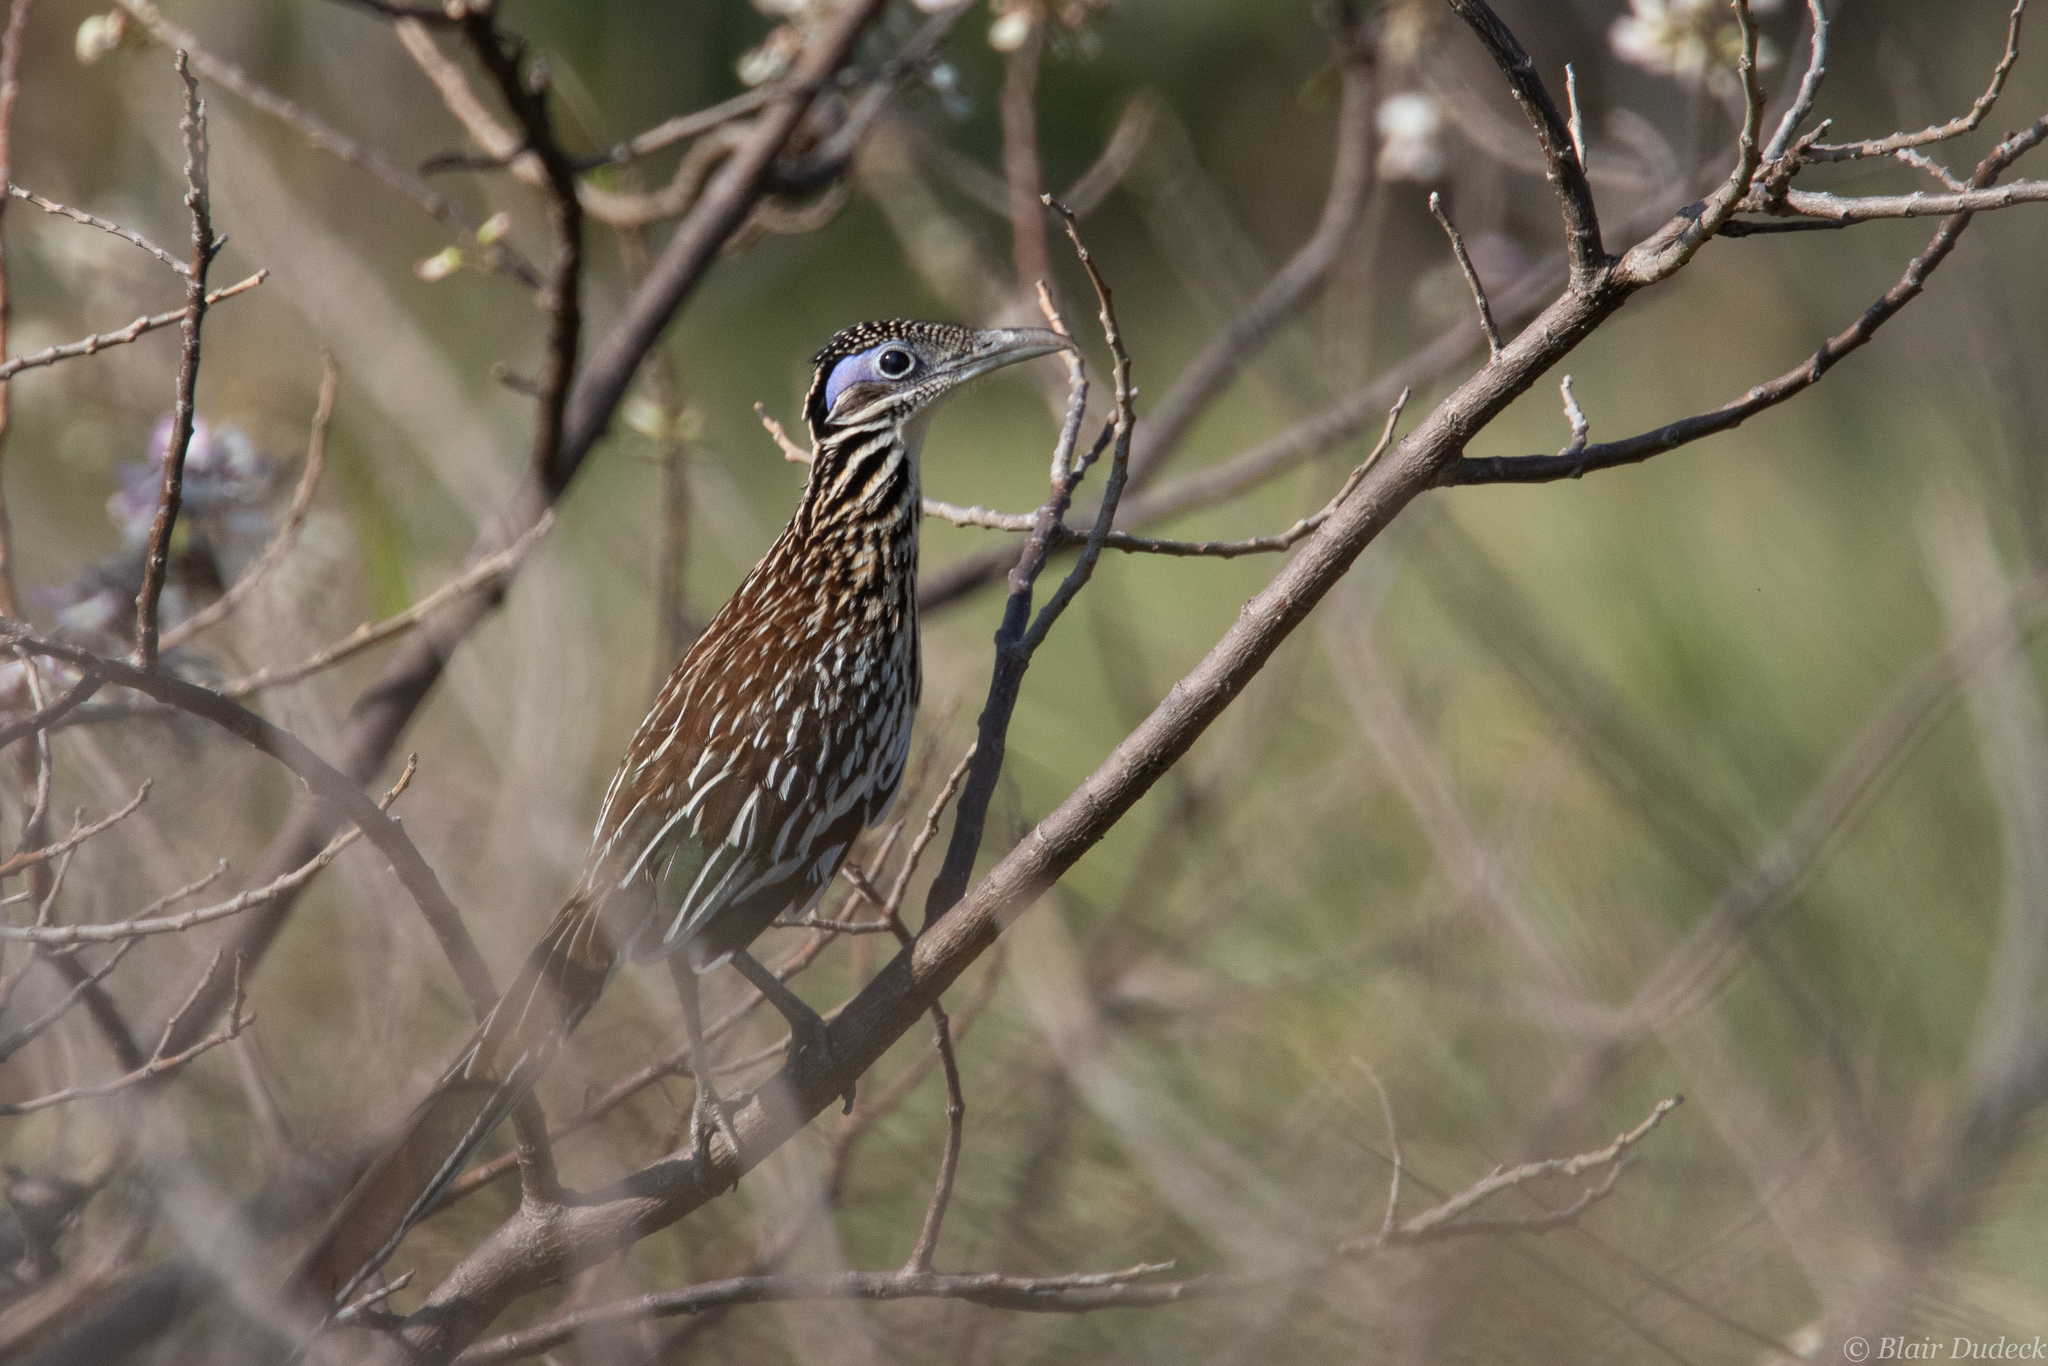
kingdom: Animalia
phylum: Chordata
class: Aves
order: Cuculiformes
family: Cuculidae
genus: Geococcyx
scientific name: Geococcyx velox
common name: Lesser roadrunner
